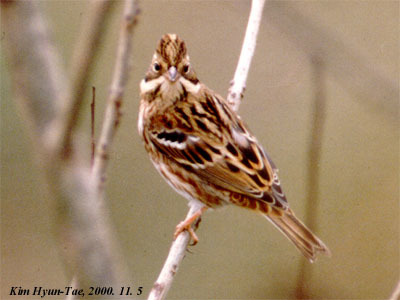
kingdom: Animalia
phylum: Chordata
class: Aves
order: Passeriformes
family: Emberizidae
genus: Emberiza
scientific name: Emberiza rustica
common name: Rustic bunting
